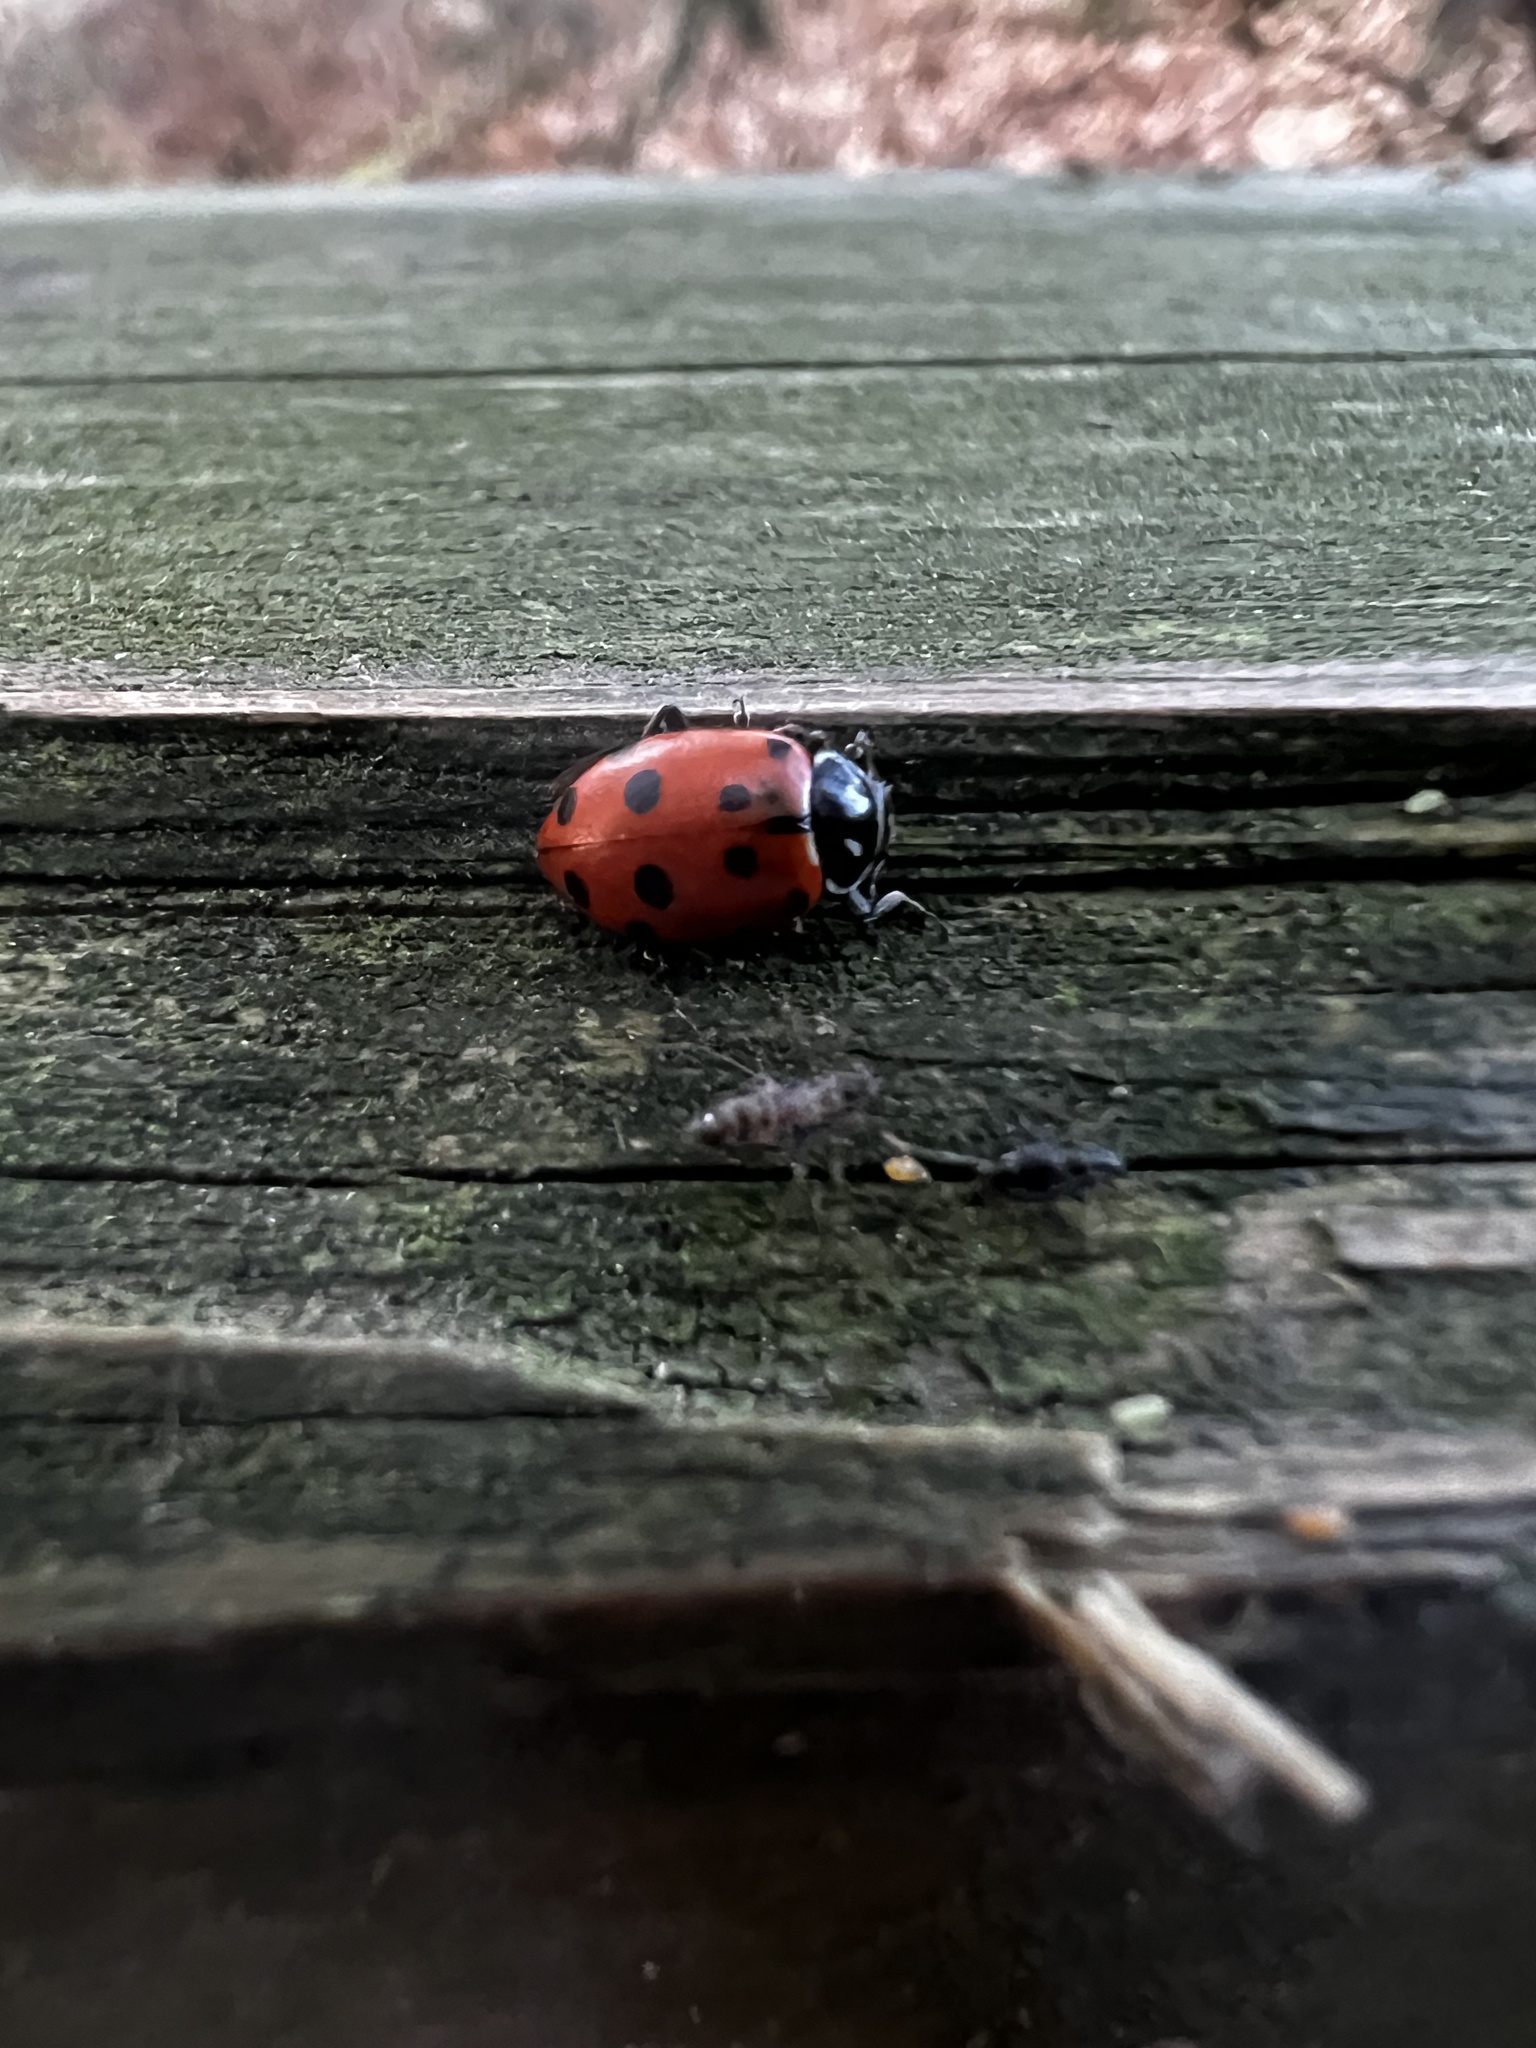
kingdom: Animalia
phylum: Arthropoda
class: Insecta
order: Coleoptera
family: Coccinellidae
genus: Hippodamia
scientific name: Hippodamia convergens
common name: Convergent lady beetle
